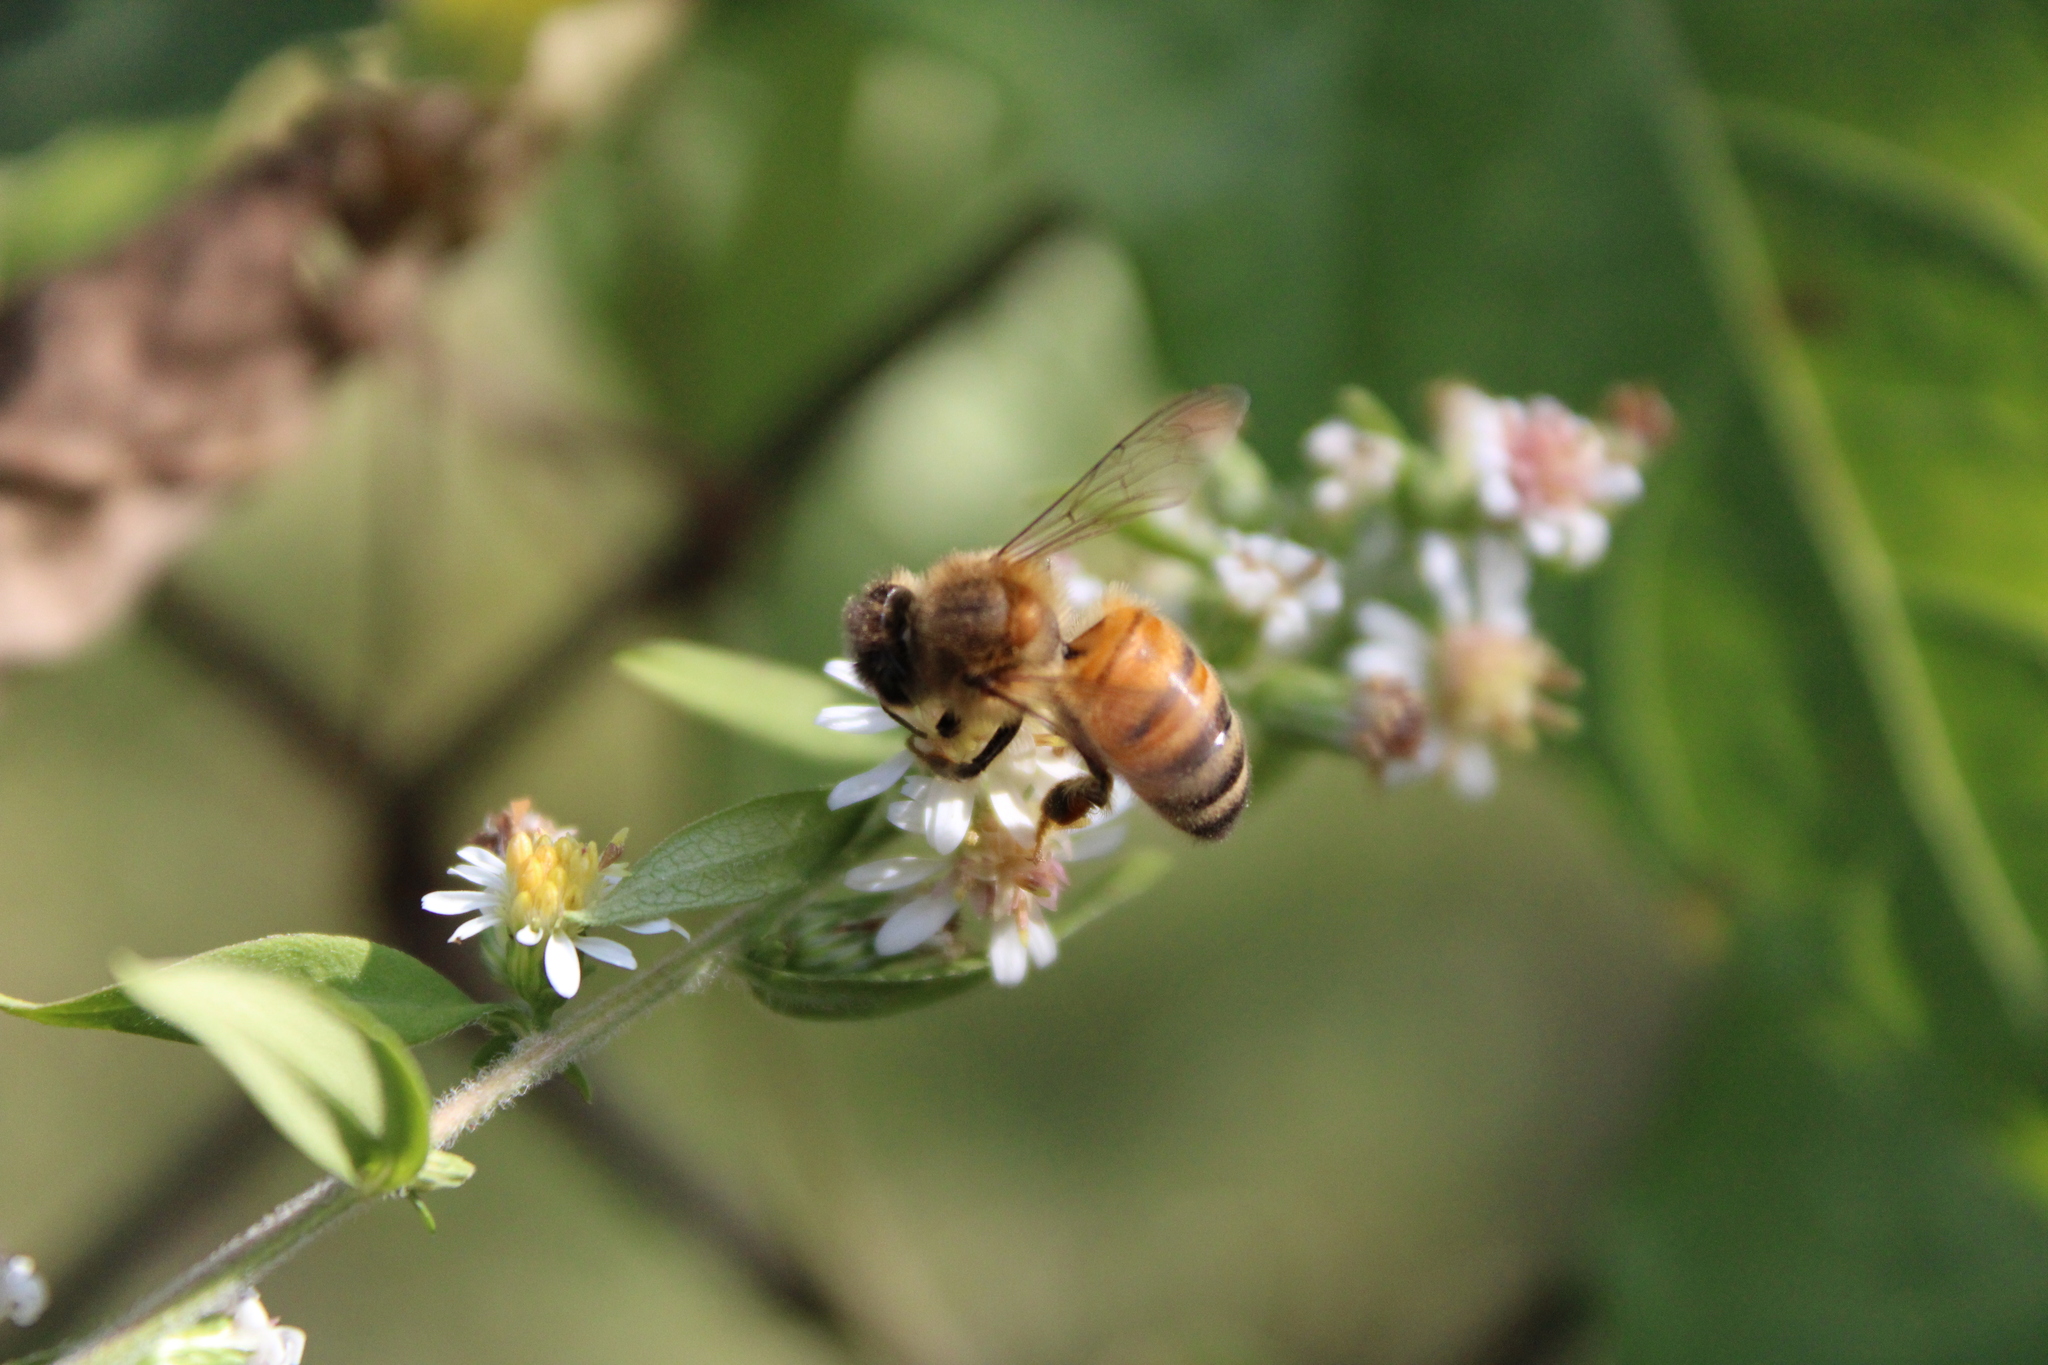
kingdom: Animalia
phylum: Arthropoda
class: Insecta
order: Hymenoptera
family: Apidae
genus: Apis
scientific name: Apis mellifera
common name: Honey bee
